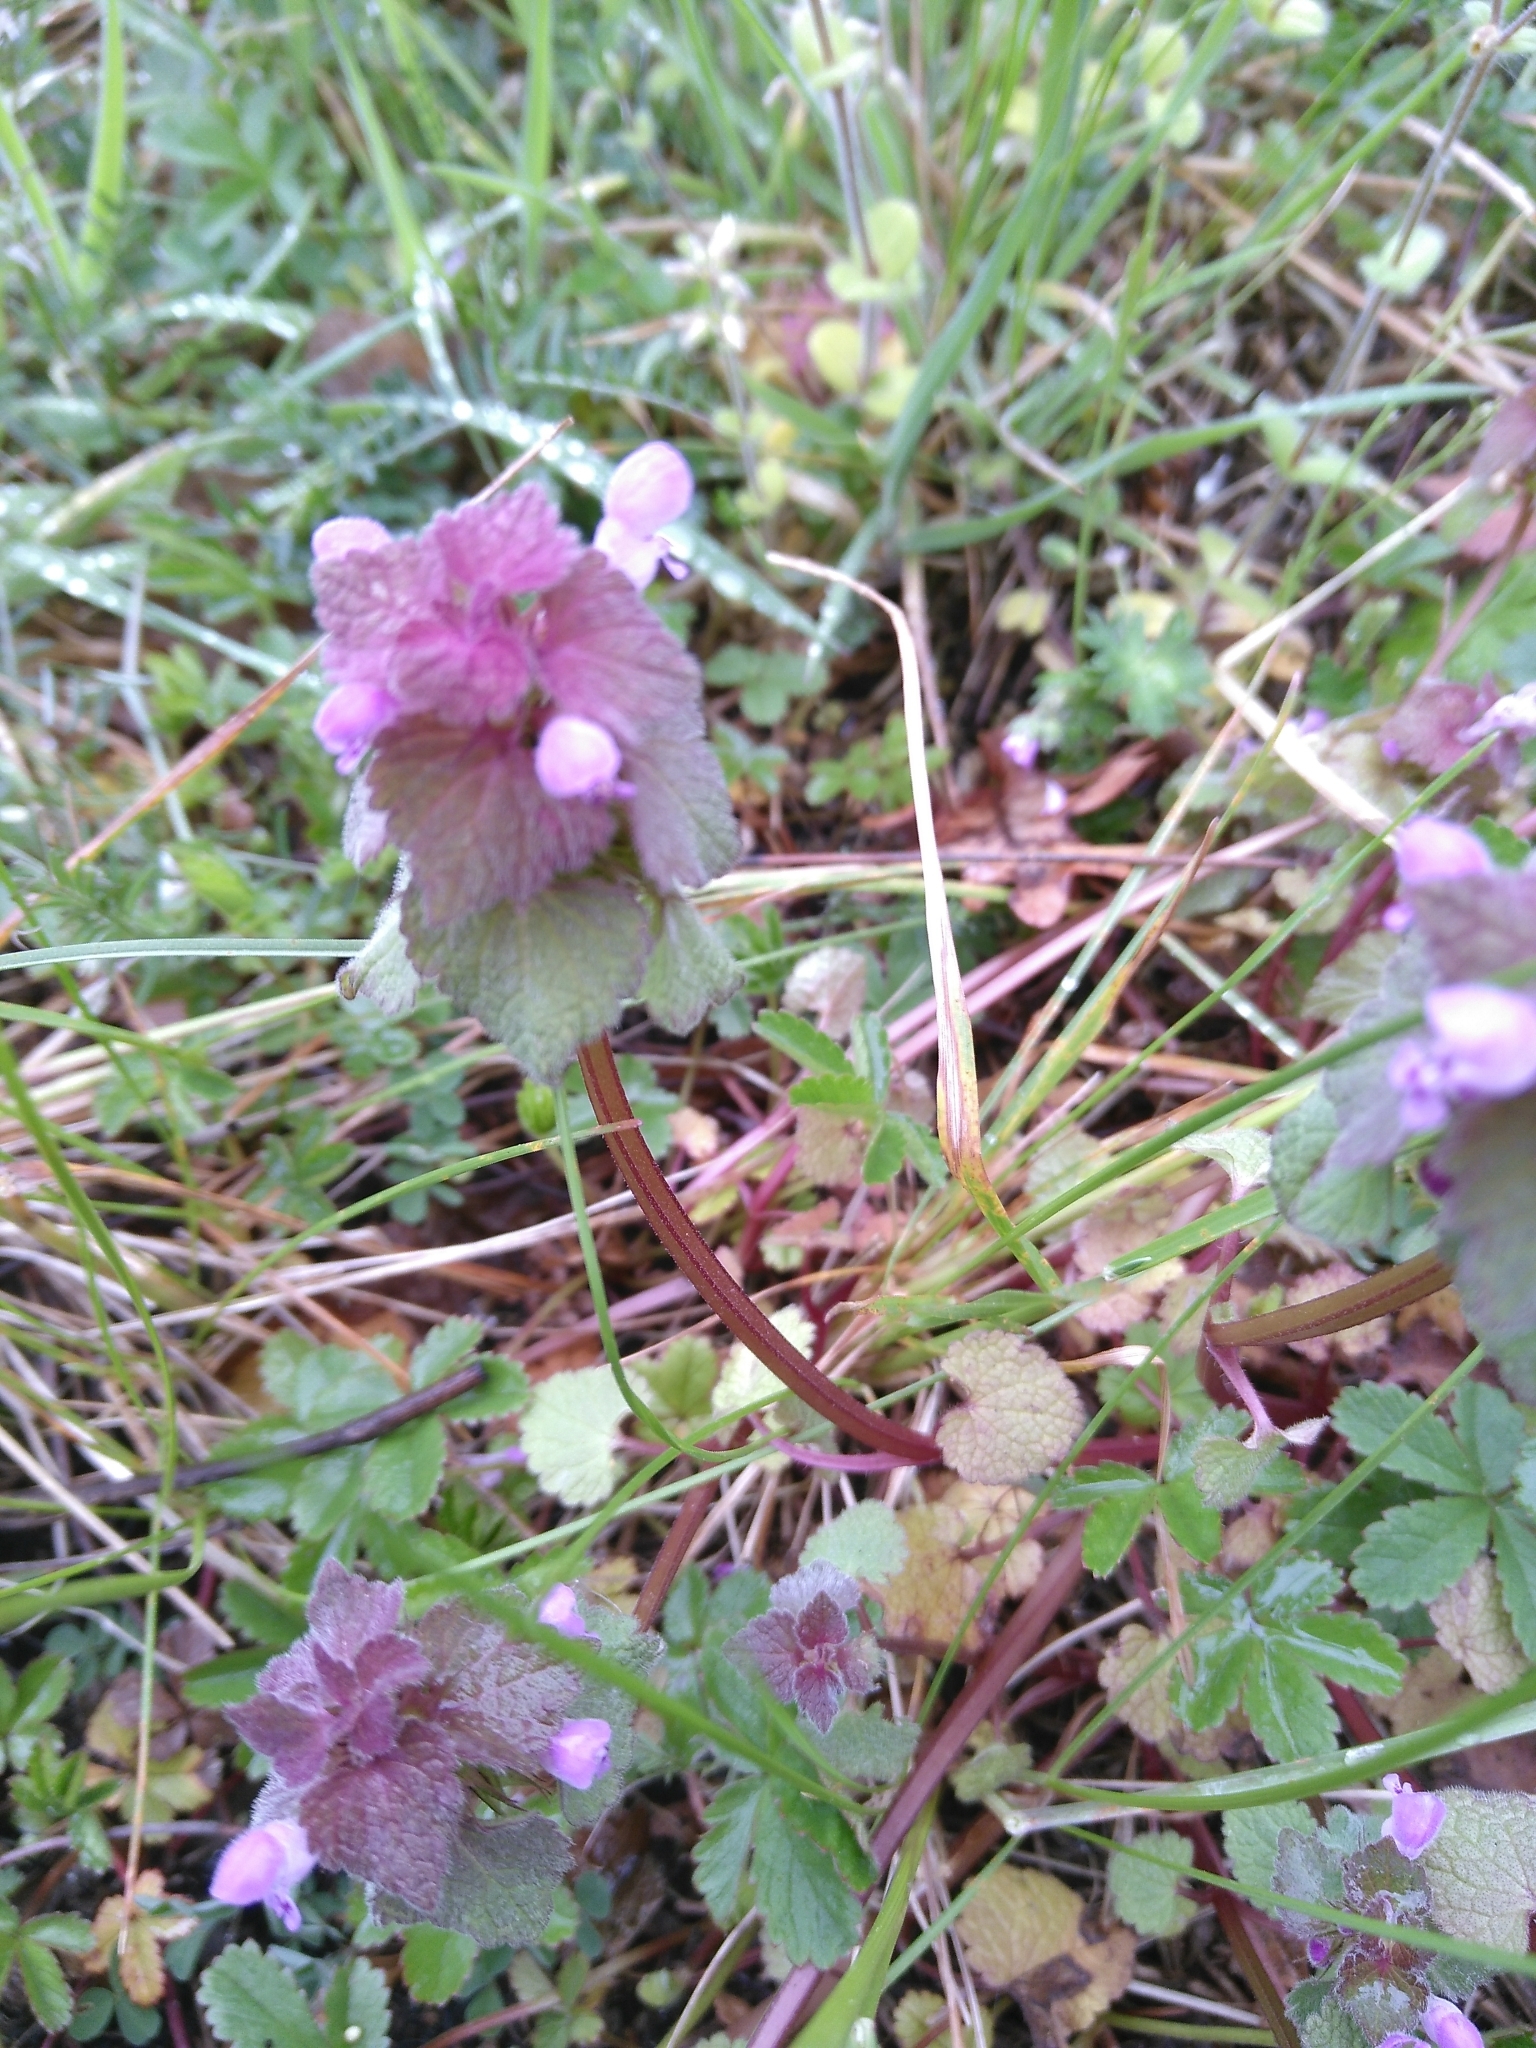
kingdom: Plantae
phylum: Tracheophyta
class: Magnoliopsida
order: Lamiales
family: Lamiaceae
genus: Lamium
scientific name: Lamium purpureum
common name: Red dead-nettle
